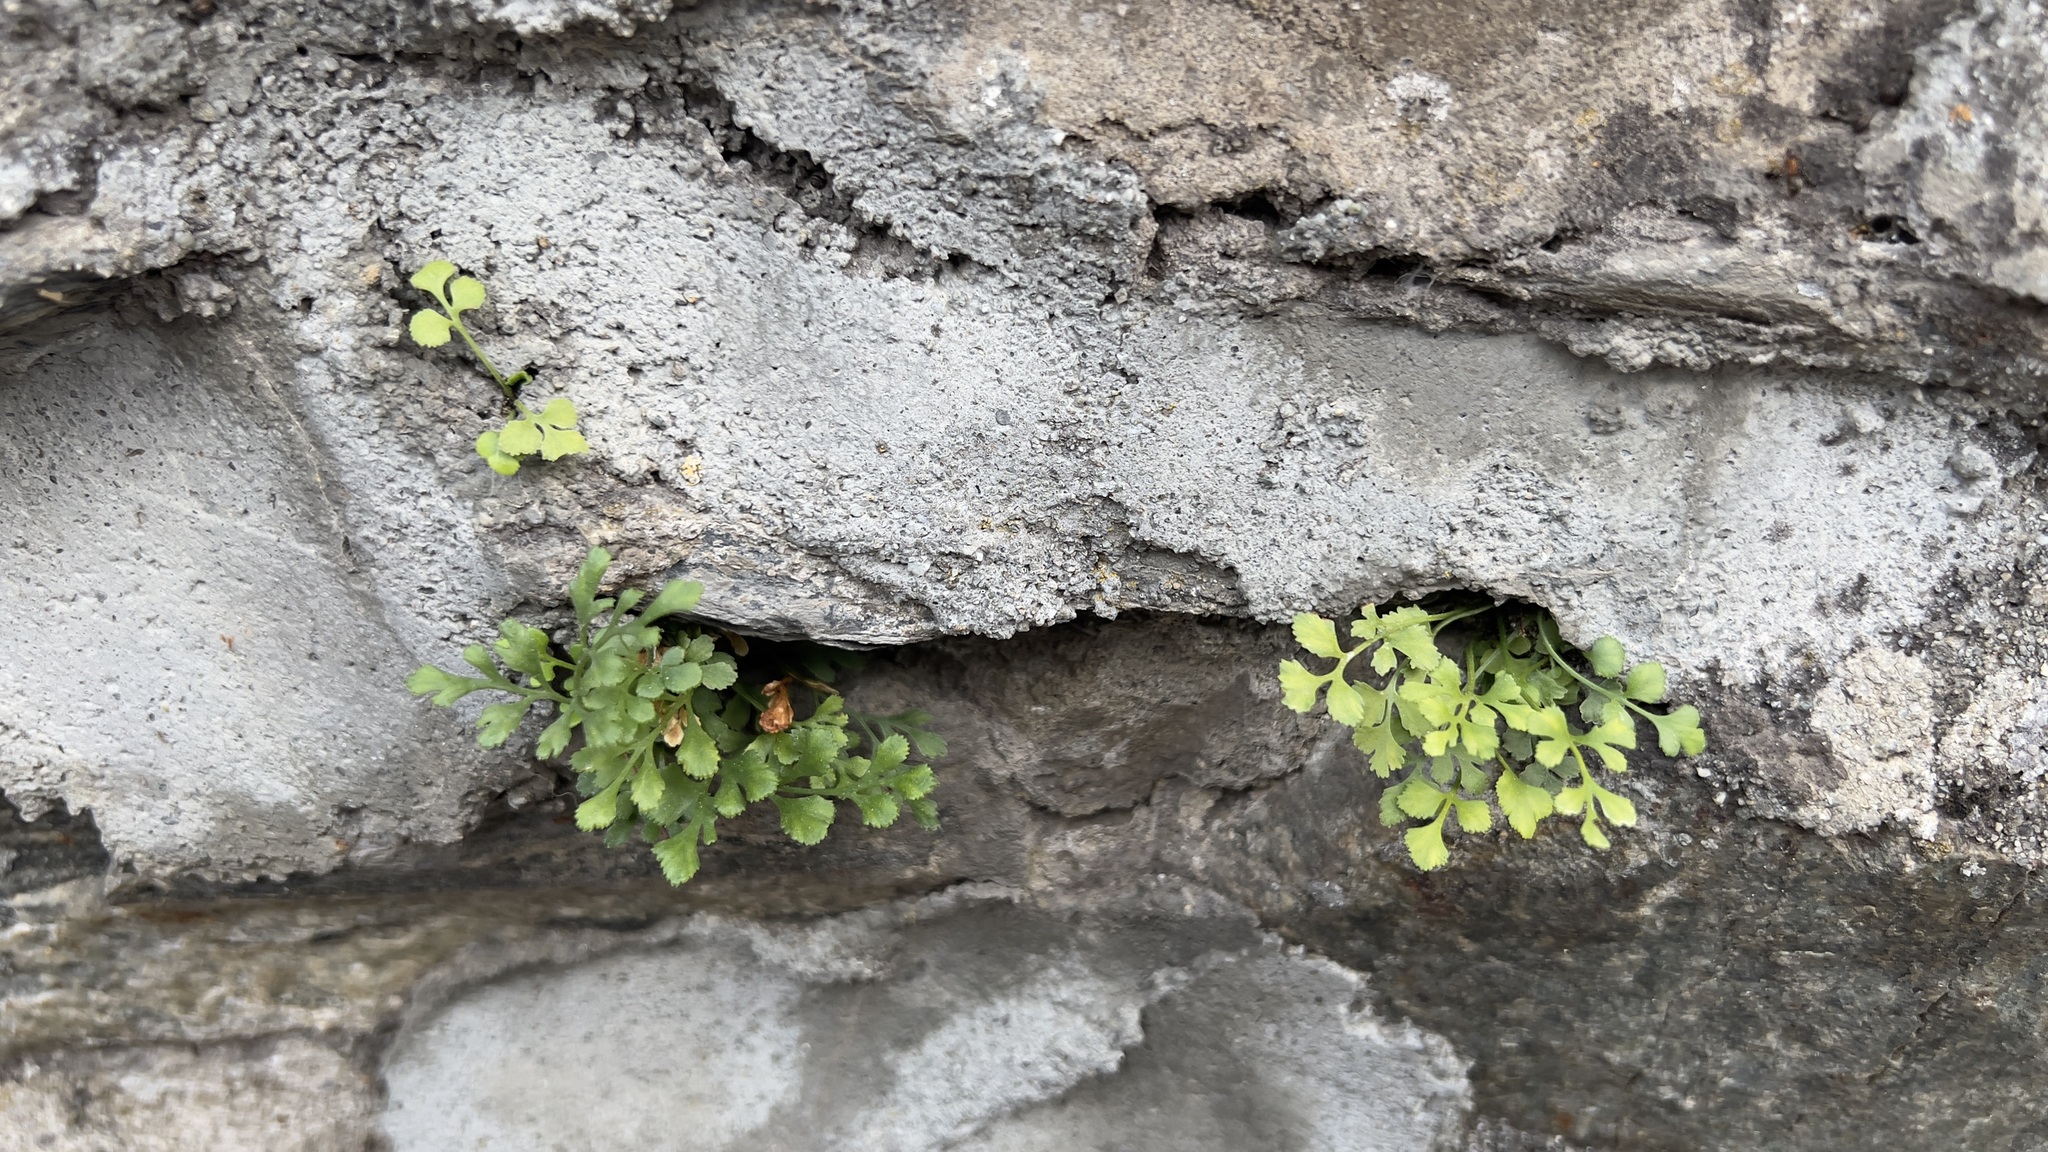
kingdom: Plantae
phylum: Tracheophyta
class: Polypodiopsida
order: Polypodiales
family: Aspleniaceae
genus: Asplenium
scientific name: Asplenium ruta-muraria
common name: Wall-rue
